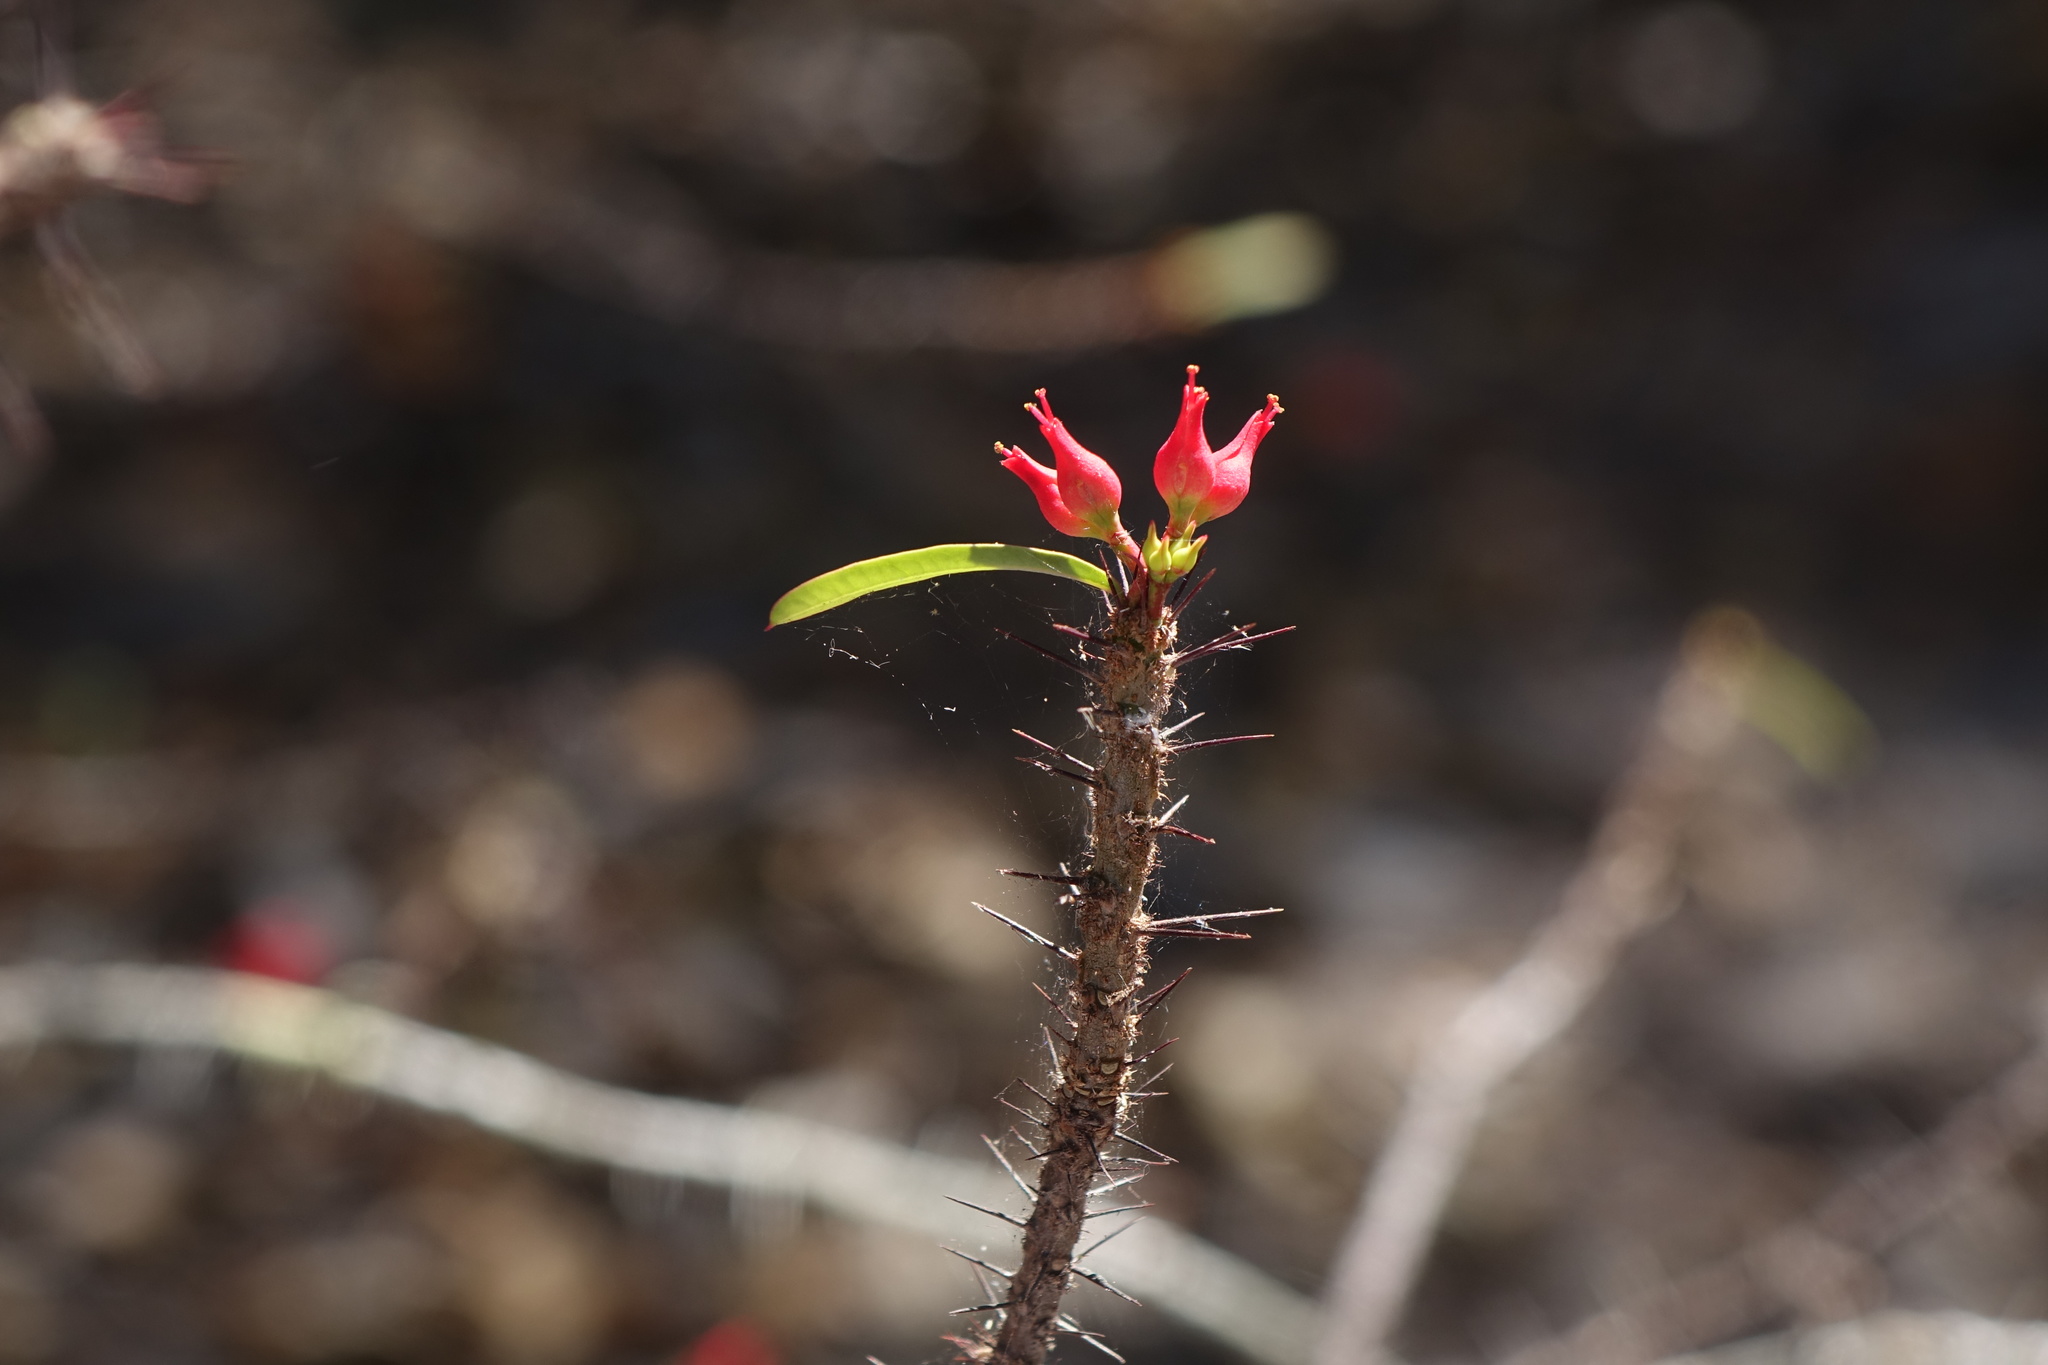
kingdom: Plantae
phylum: Tracheophyta
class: Magnoliopsida
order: Malpighiales
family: Euphorbiaceae
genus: Euphorbia
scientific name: Euphorbia pedilanthoides
